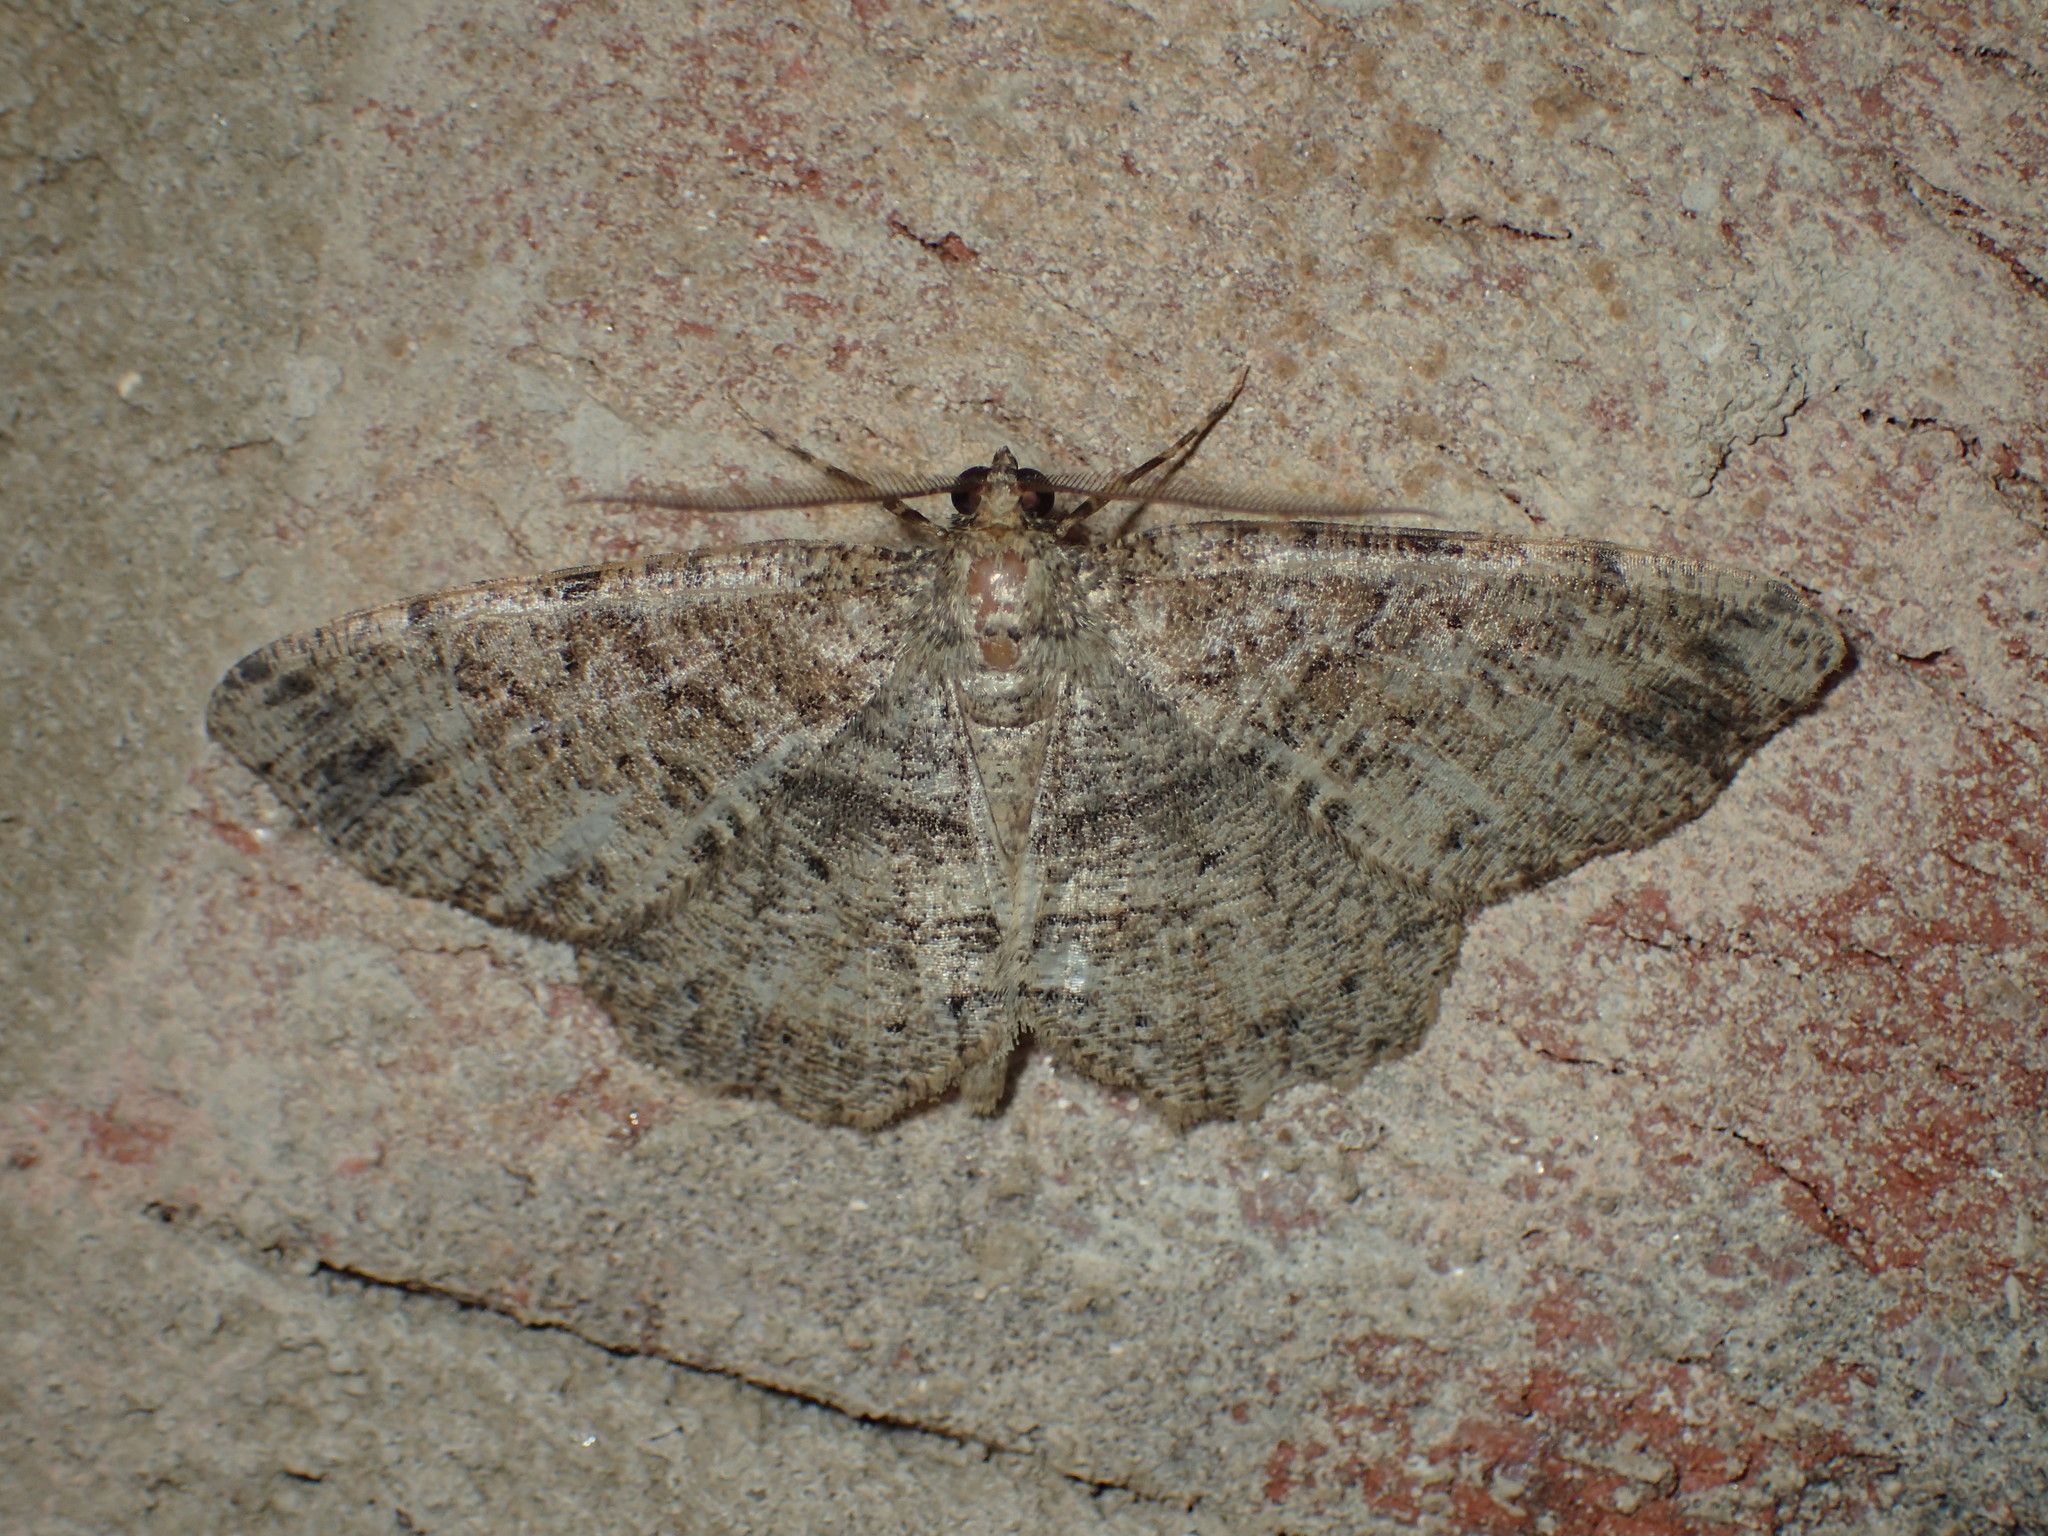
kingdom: Animalia
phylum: Arthropoda
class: Insecta
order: Lepidoptera
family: Geometridae
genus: Melanolophia
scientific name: Melanolophia canadaria
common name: Canadian melanolophia
